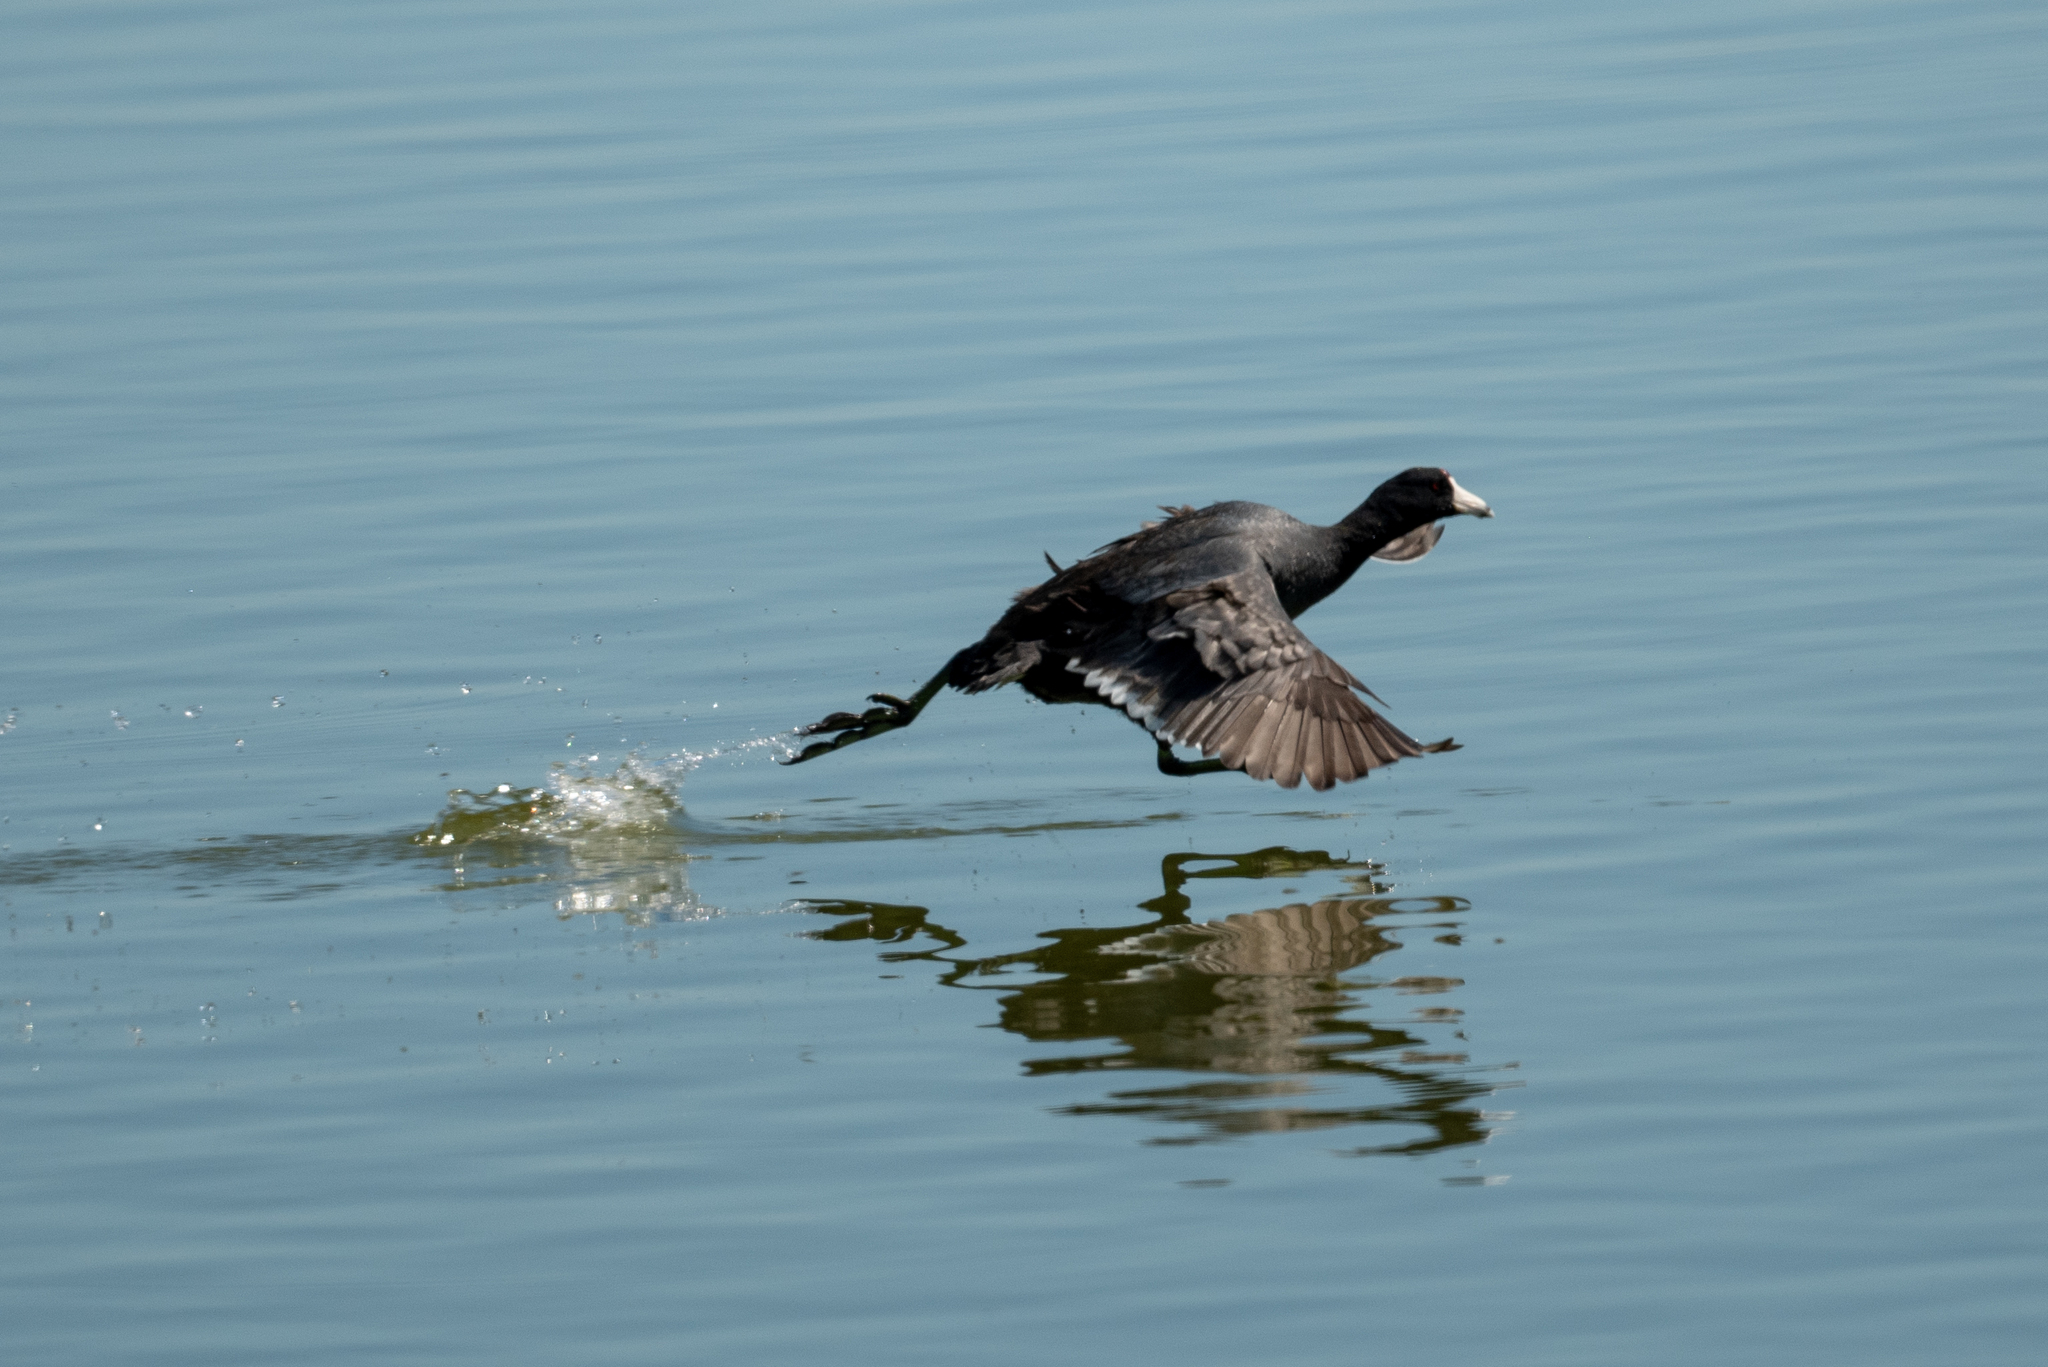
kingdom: Animalia
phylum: Chordata
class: Aves
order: Gruiformes
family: Rallidae
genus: Fulica
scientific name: Fulica americana
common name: American coot
